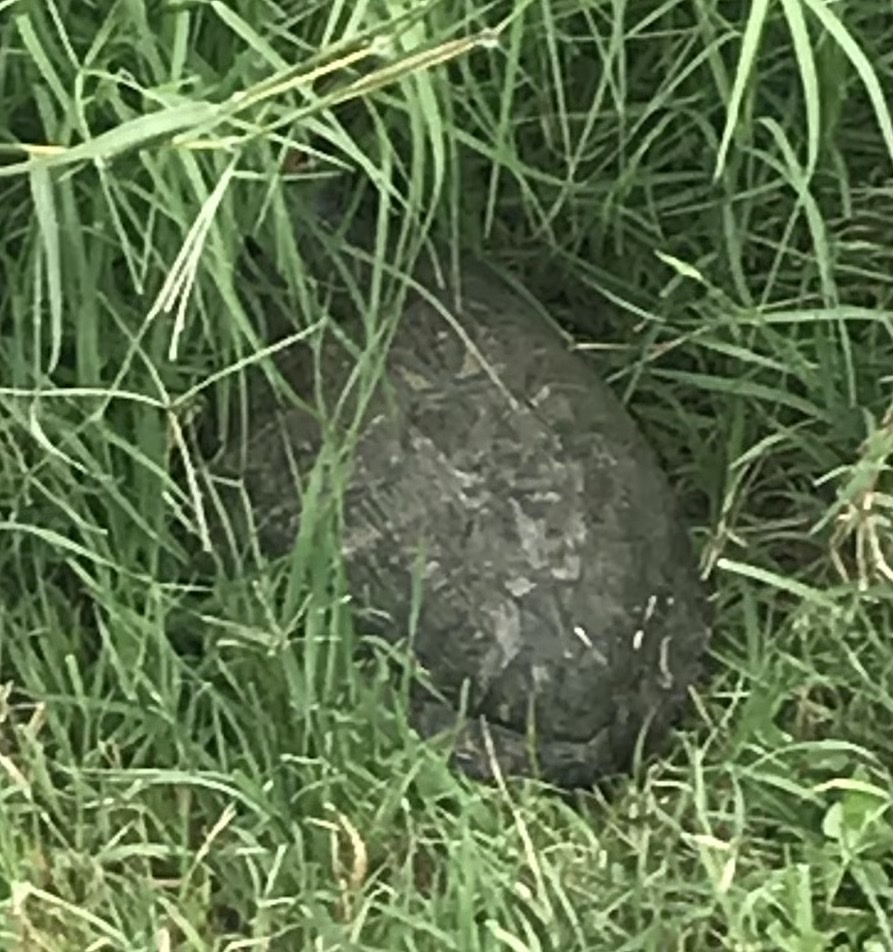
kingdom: Animalia
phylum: Chordata
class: Testudines
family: Emydidae
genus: Trachemys
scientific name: Trachemys scripta
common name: Slider
